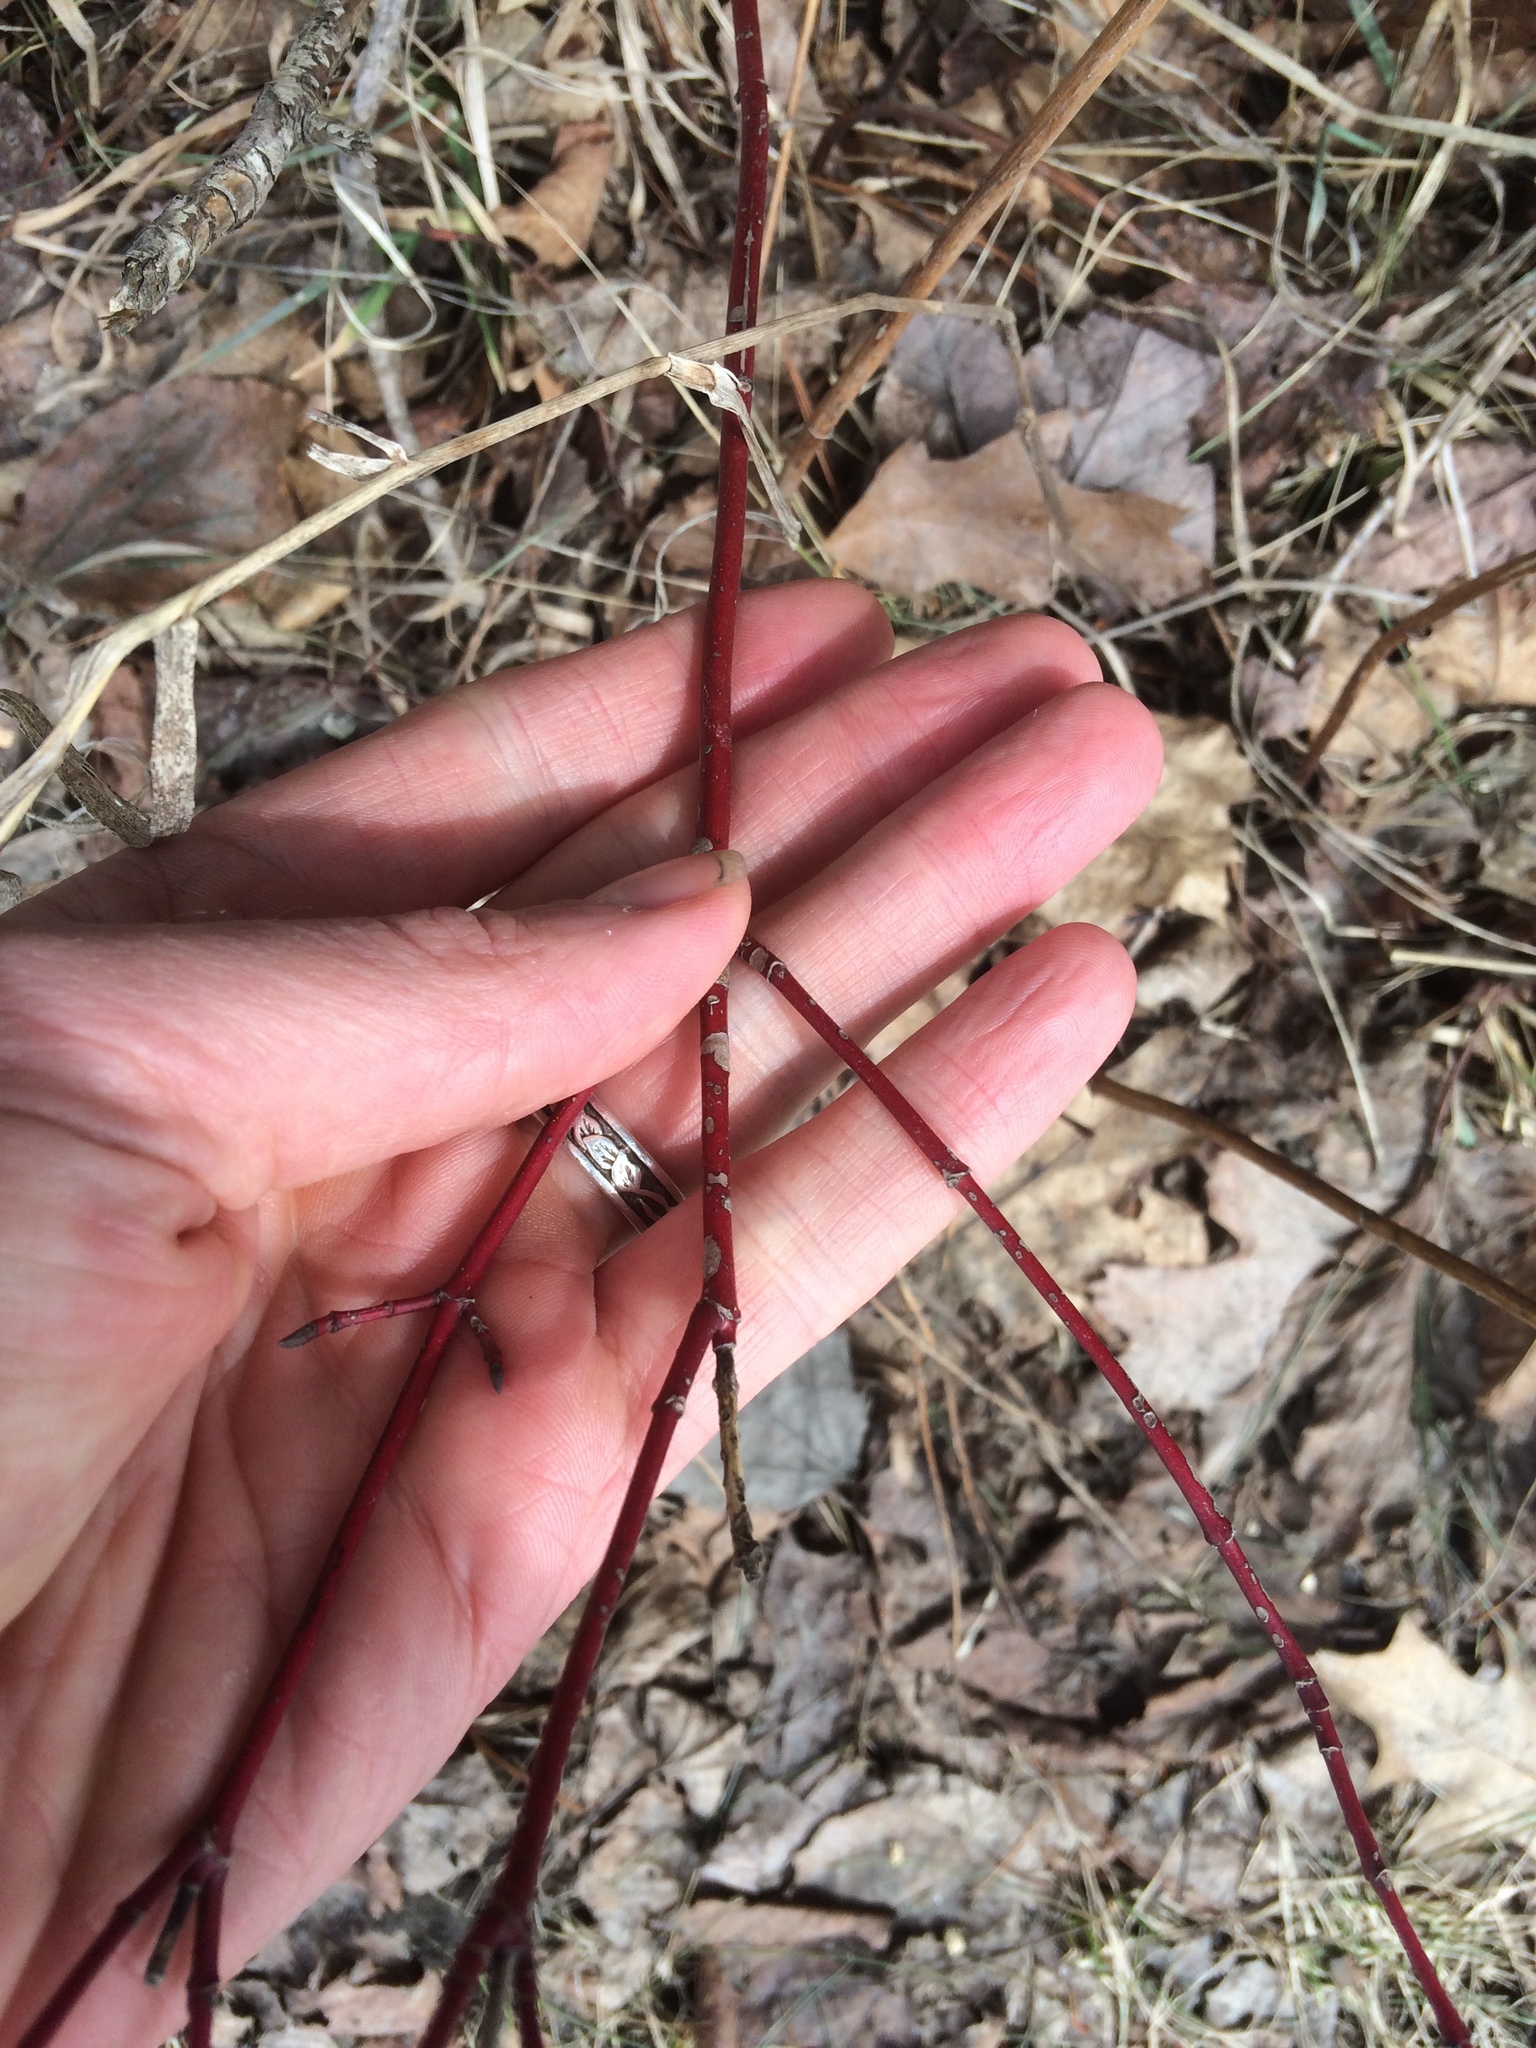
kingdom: Plantae
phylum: Tracheophyta
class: Magnoliopsida
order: Cornales
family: Cornaceae
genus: Cornus
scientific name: Cornus sericea
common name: Red-osier dogwood
